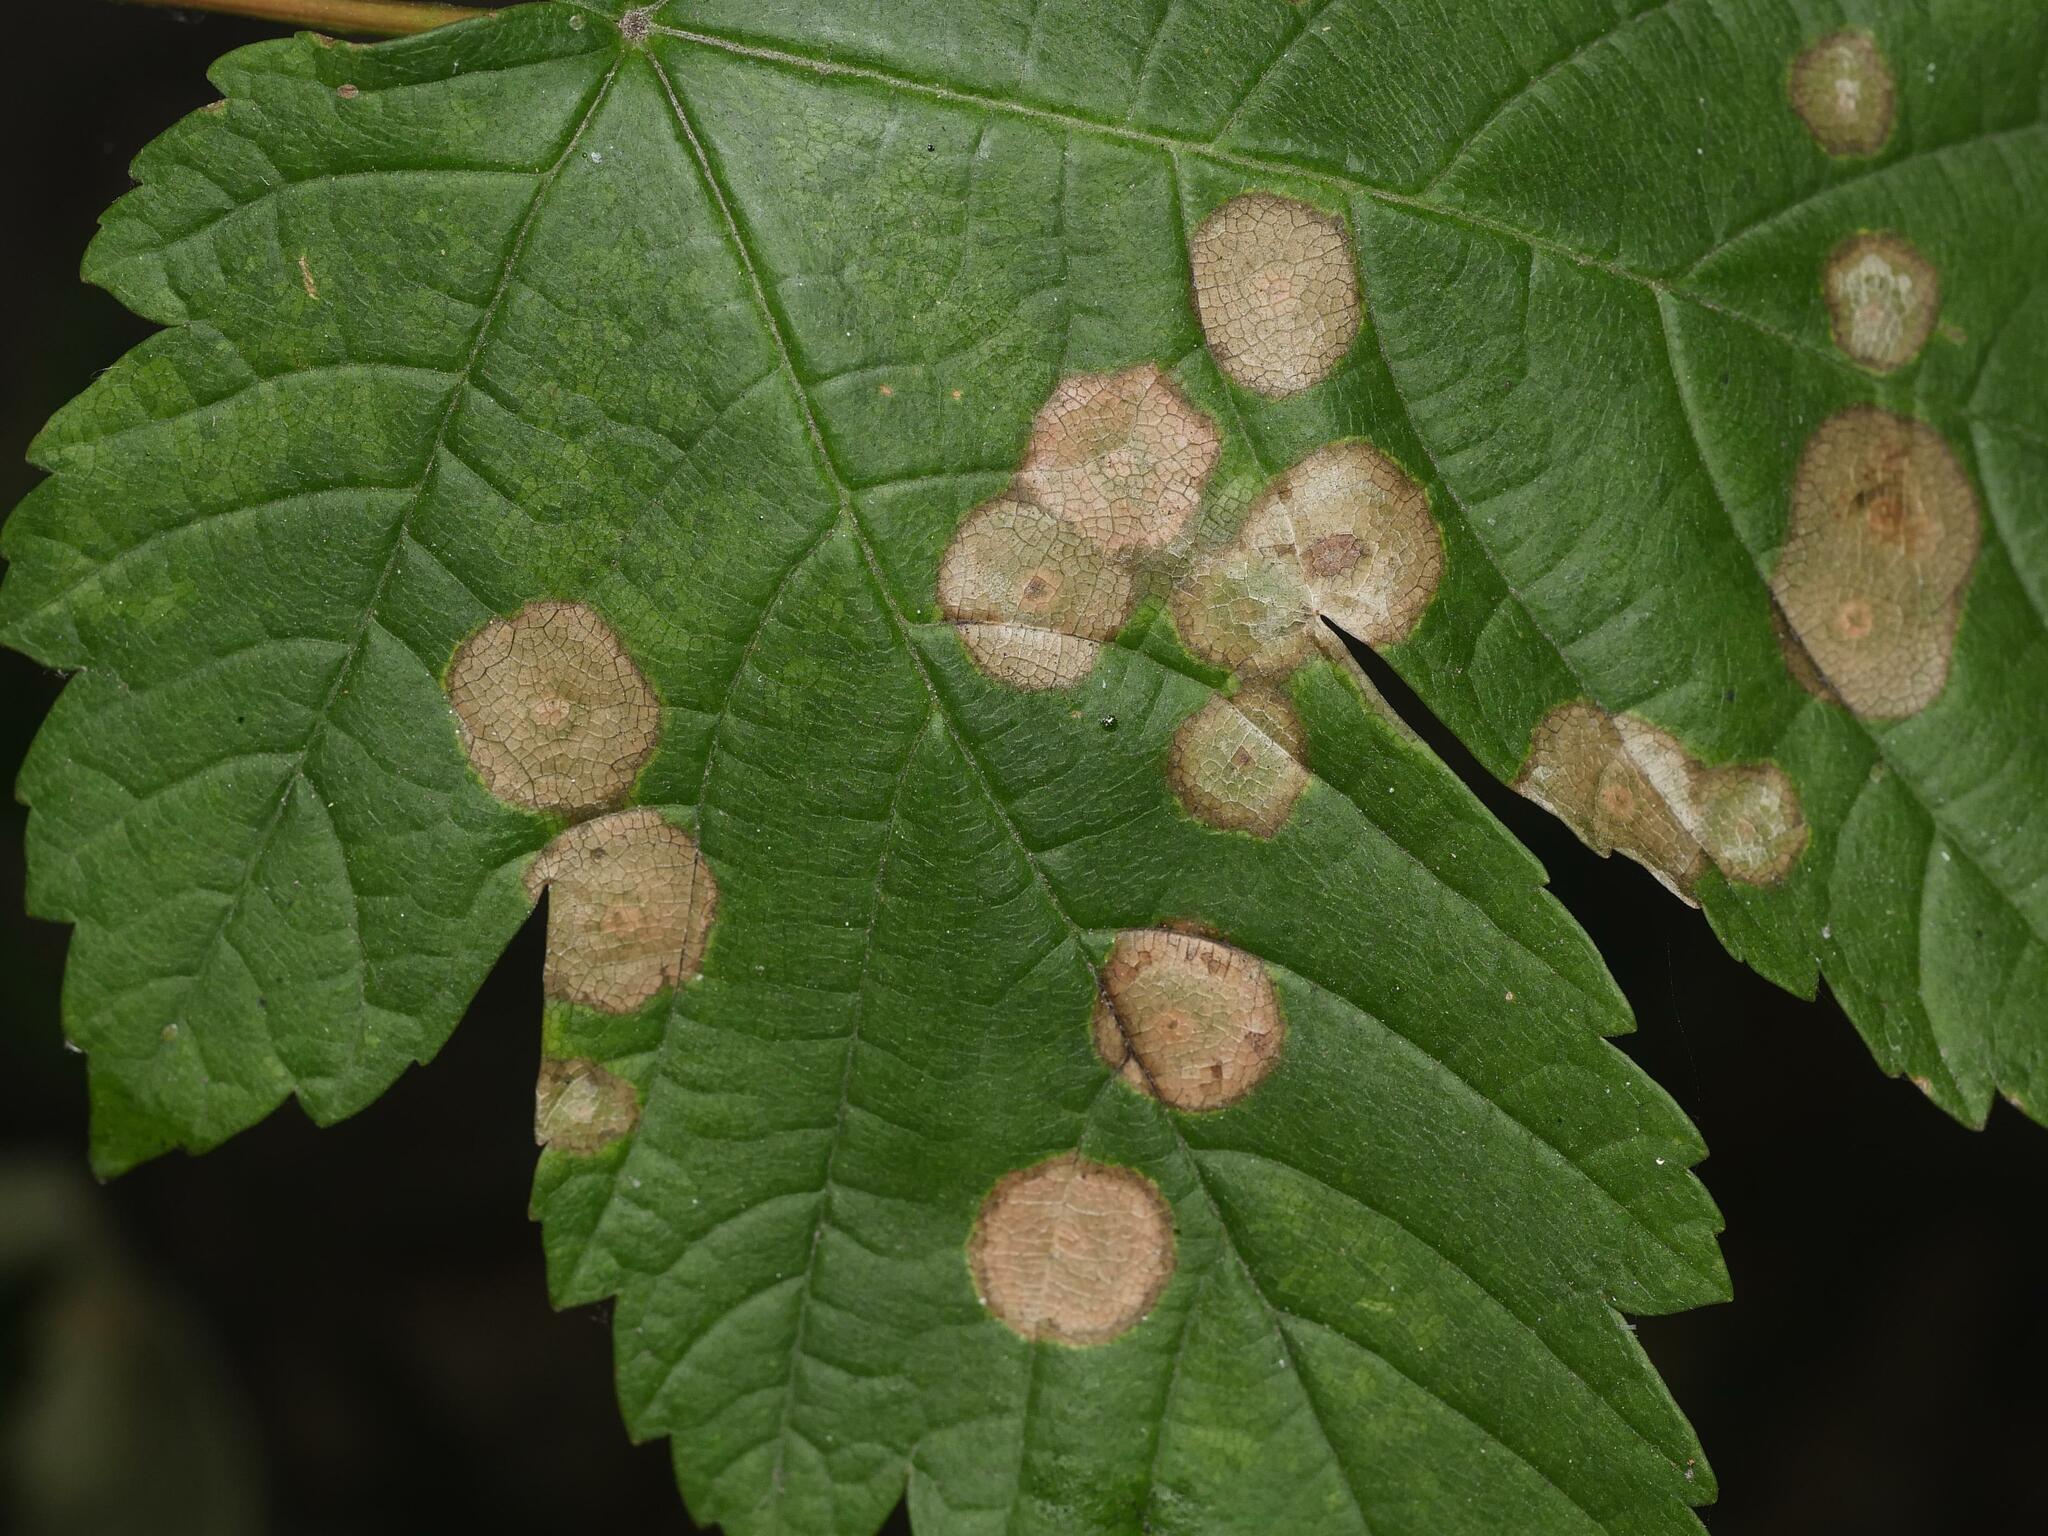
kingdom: Animalia
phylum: Arthropoda
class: Insecta
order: Diptera
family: Cecidomyiidae
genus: Drisina
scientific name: Drisina glutinosa
